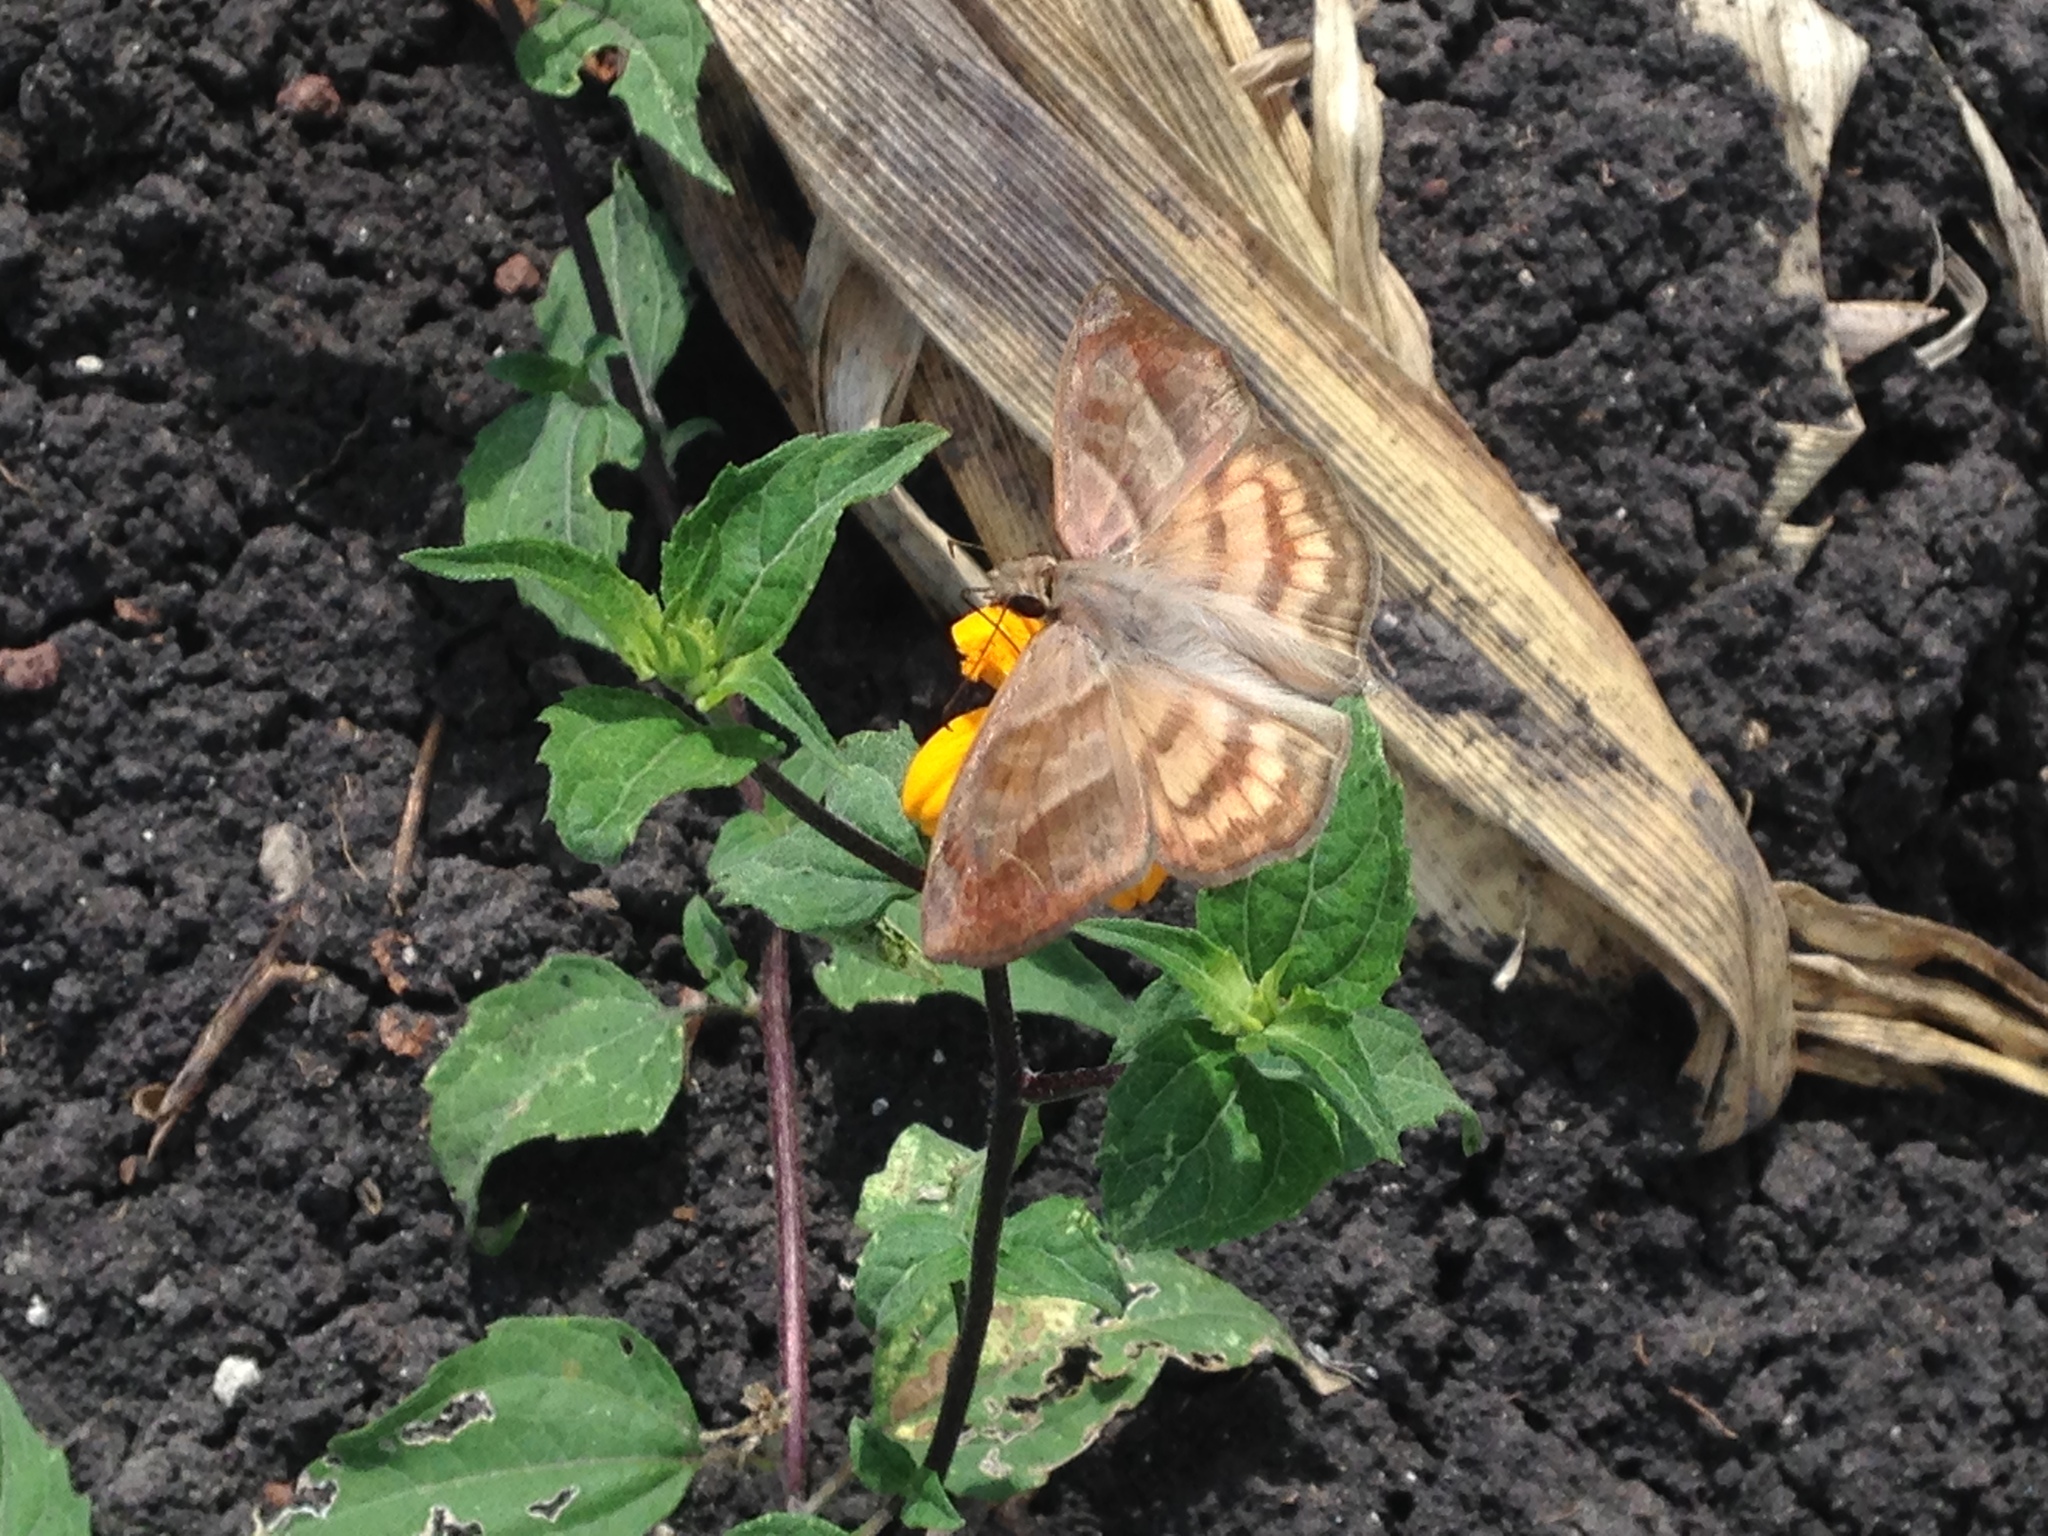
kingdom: Animalia
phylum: Arthropoda
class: Insecta
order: Lepidoptera
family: Hesperiidae
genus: Timochares
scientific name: Timochares trifasciata
